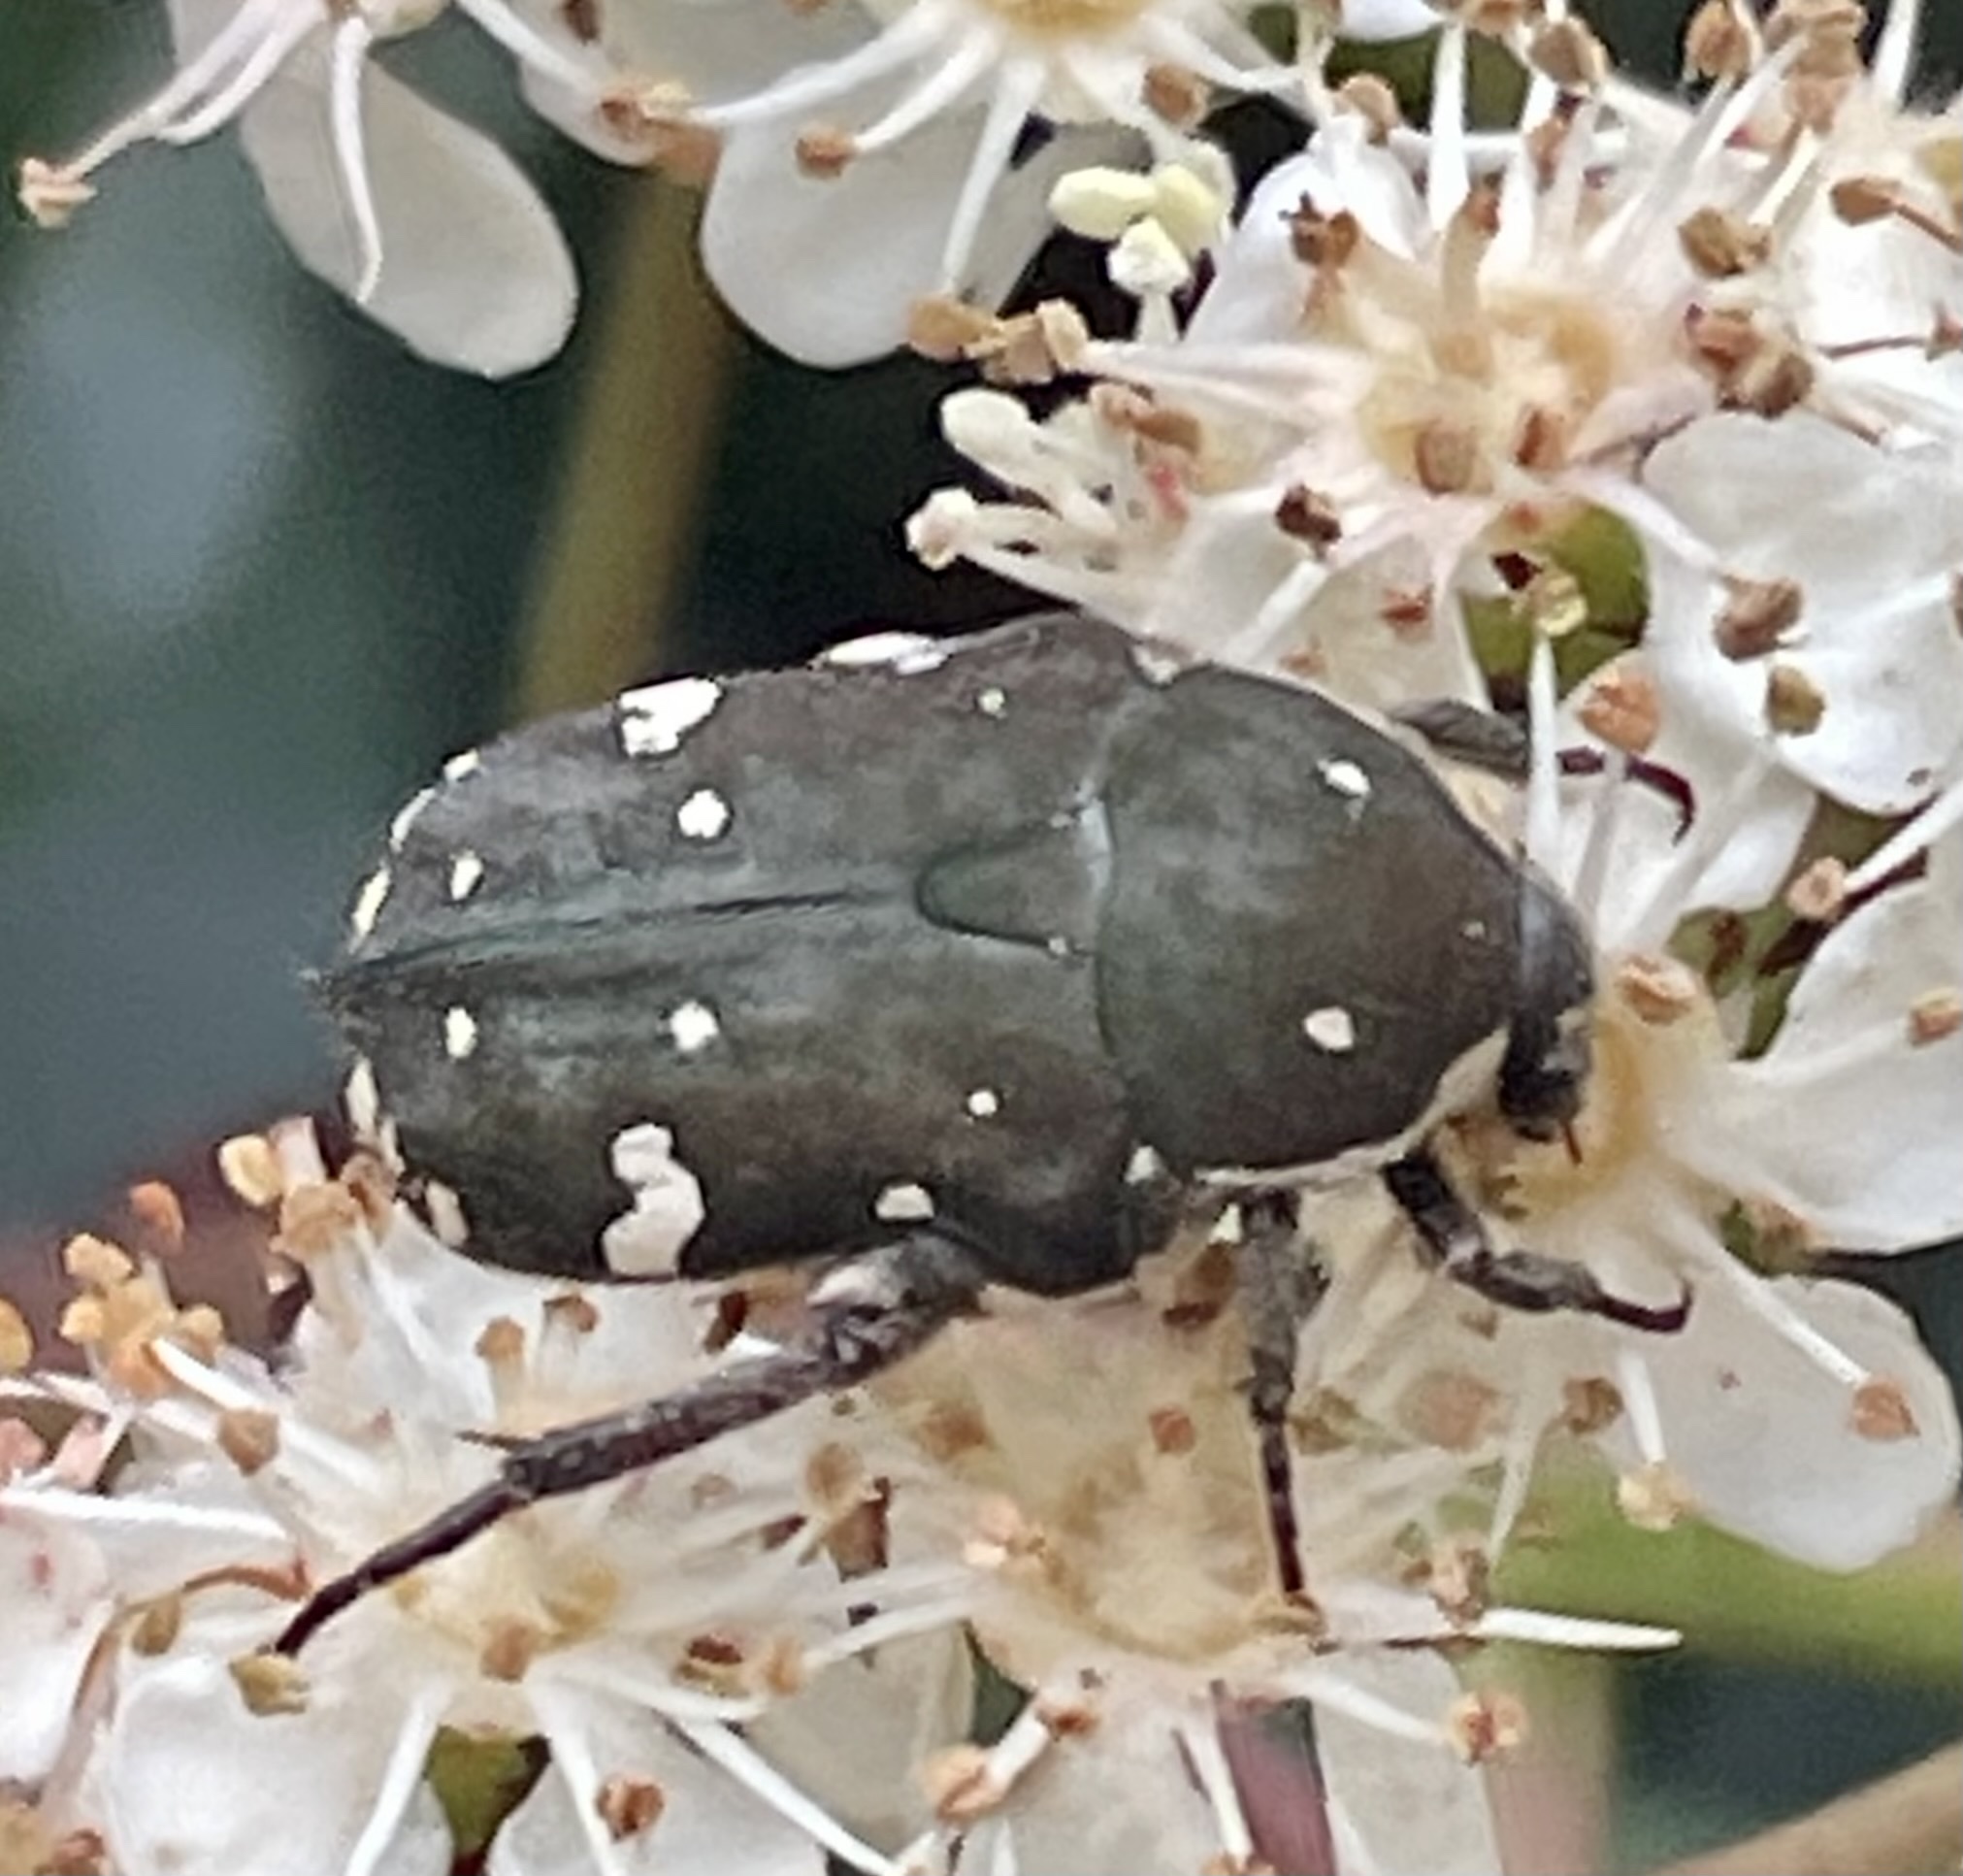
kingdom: Animalia
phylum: Arthropoda
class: Insecta
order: Coleoptera
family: Scarabaeidae
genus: Glycyphana
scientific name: Glycyphana stolata
